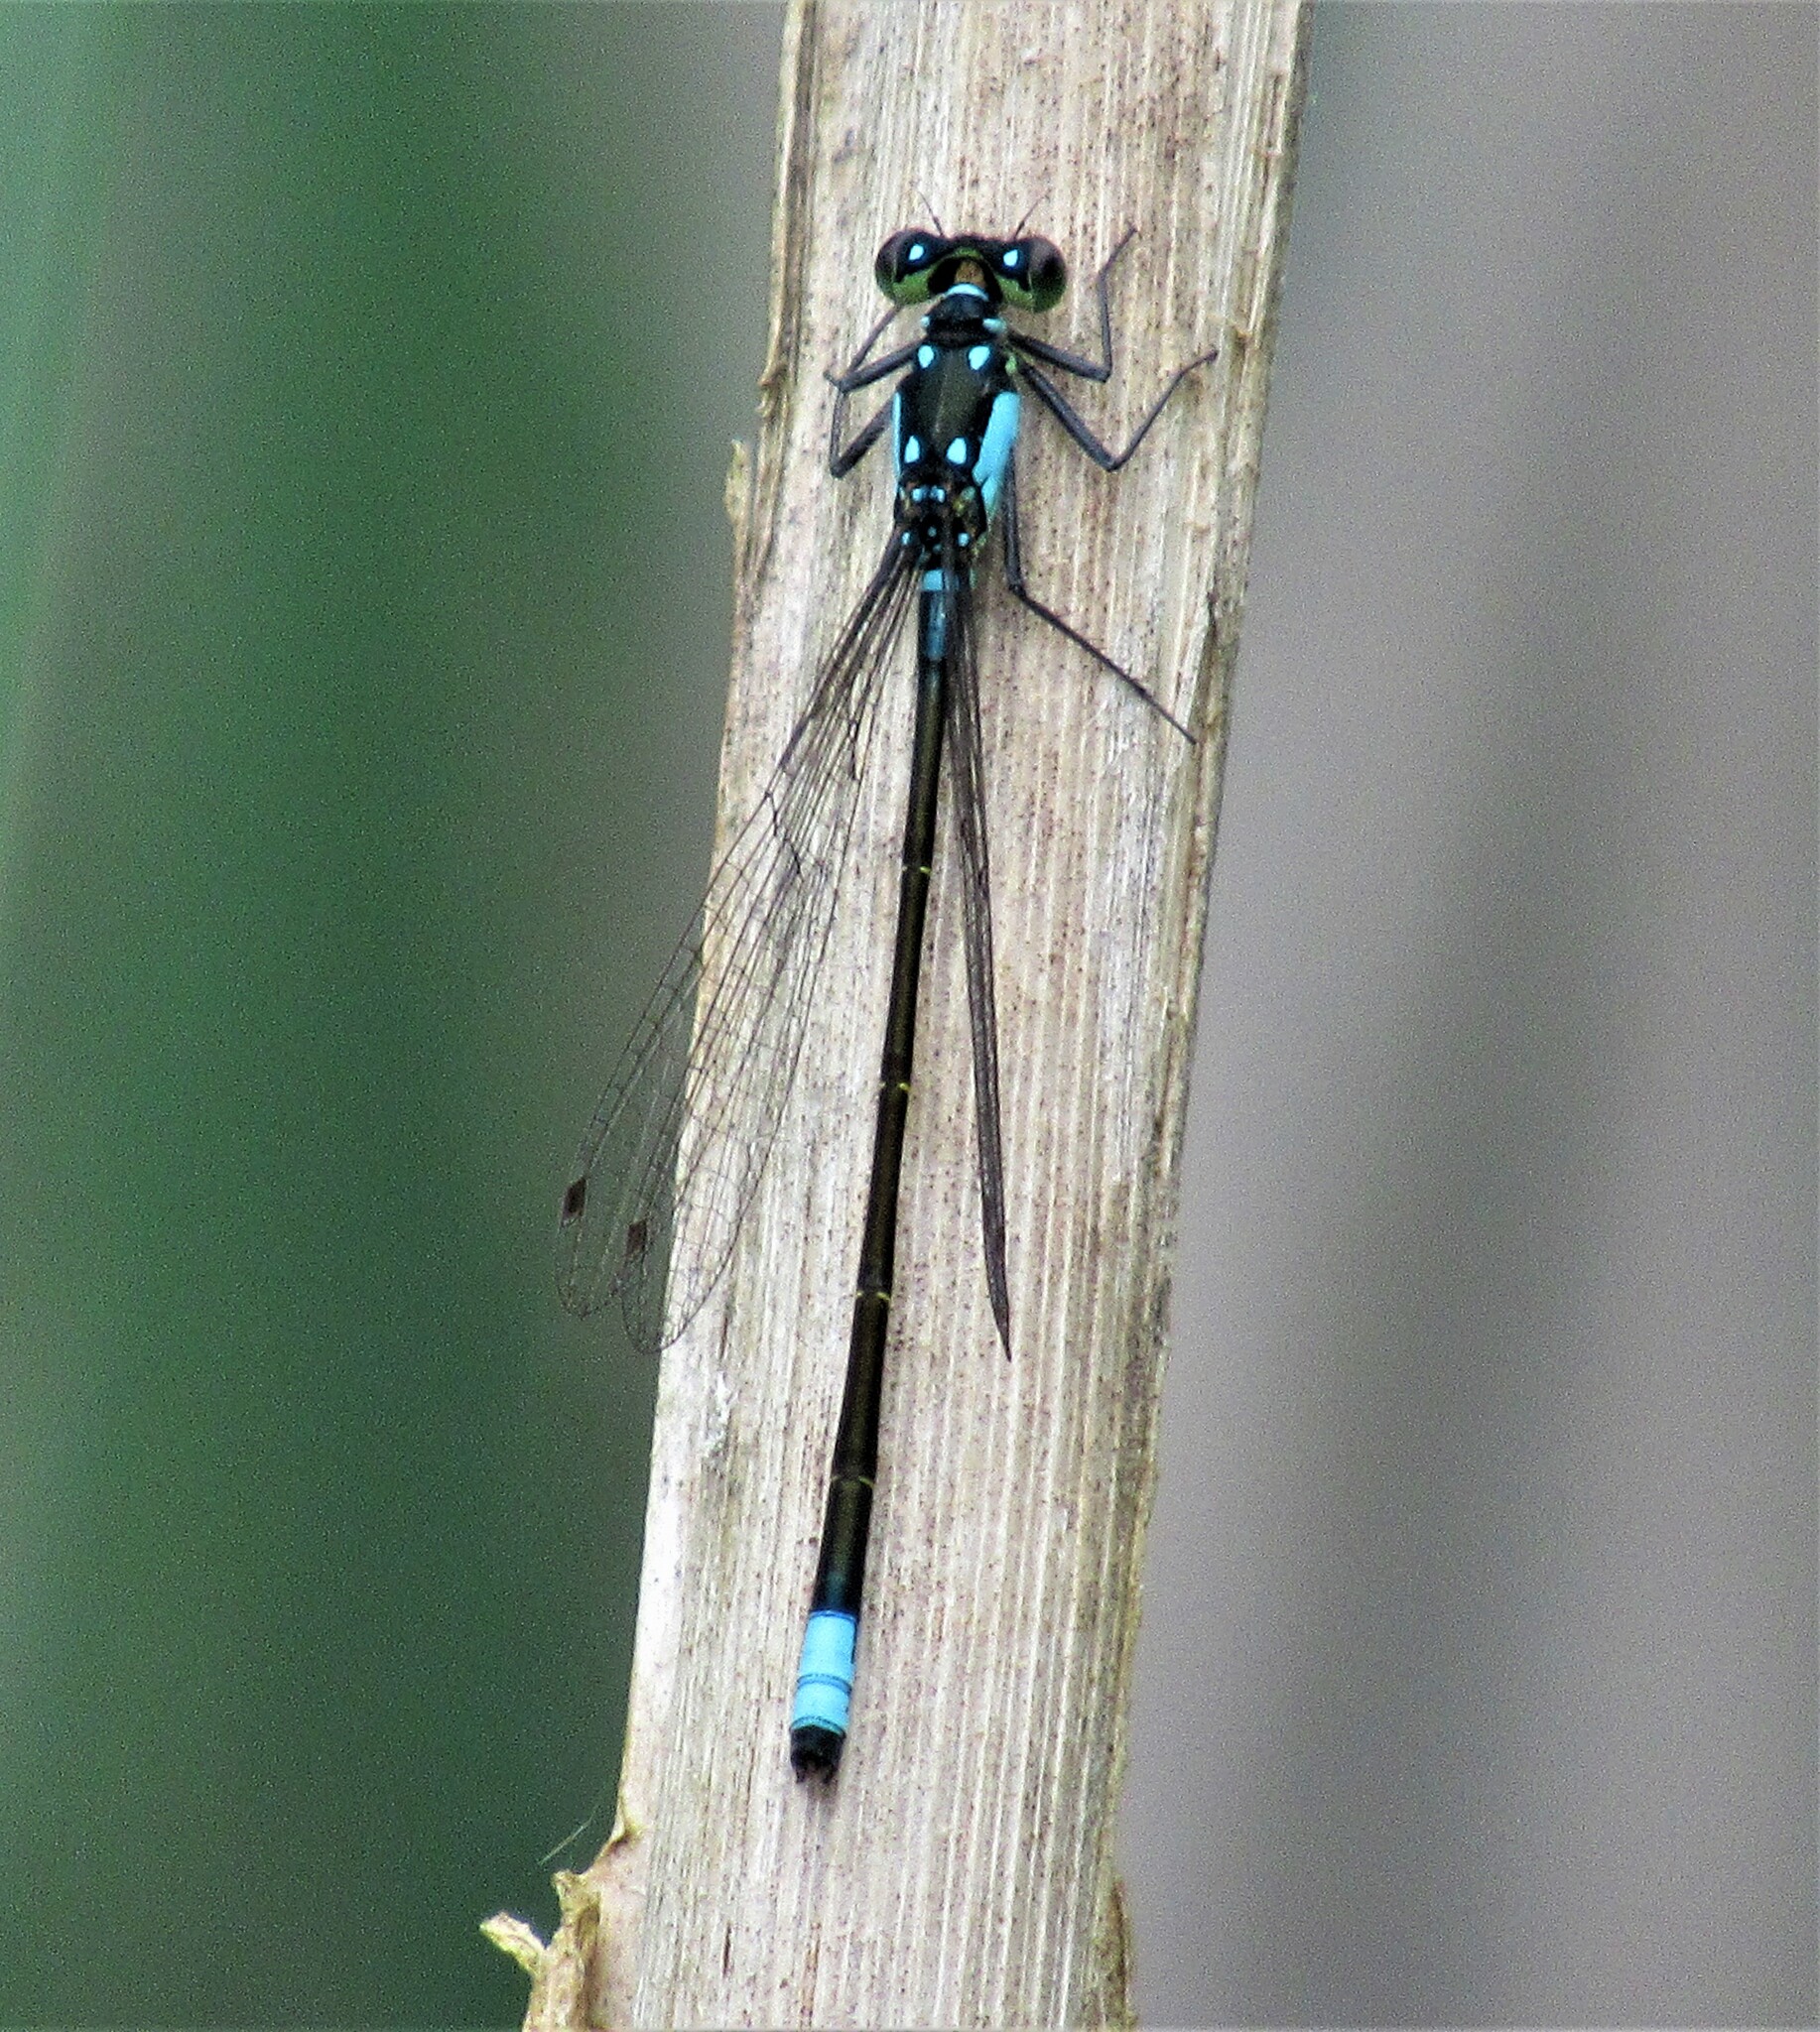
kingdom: Animalia
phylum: Arthropoda
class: Insecta
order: Odonata
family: Coenagrionidae
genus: Ischnura
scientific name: Ischnura cervula
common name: Pacific forktail
